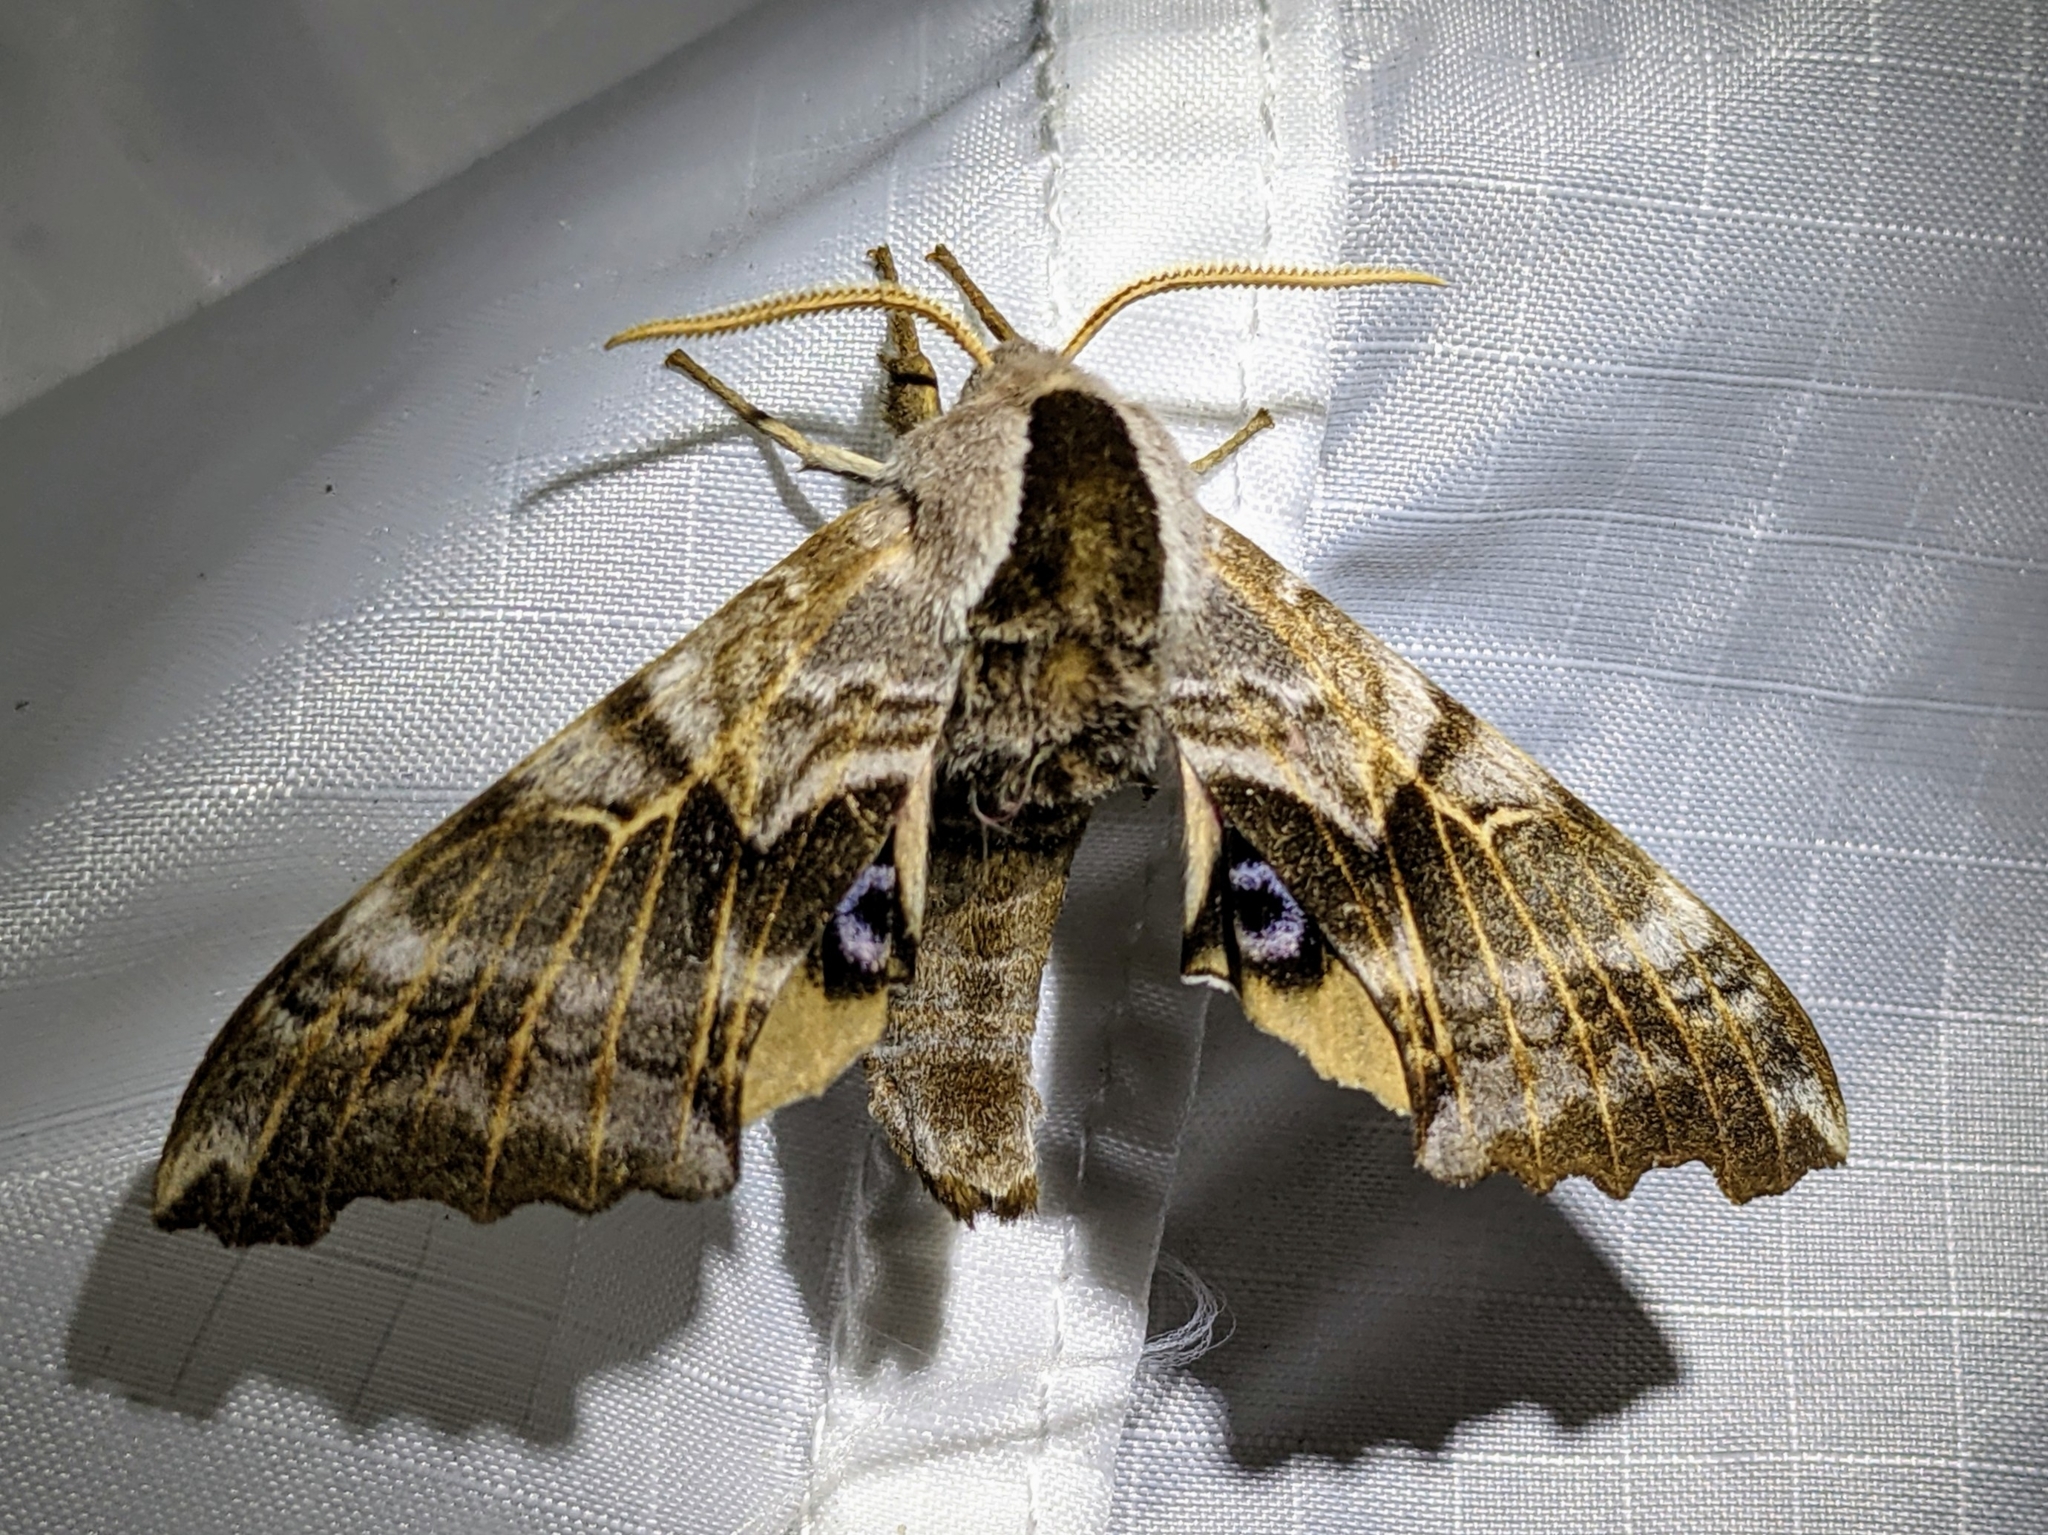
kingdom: Animalia
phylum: Arthropoda
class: Insecta
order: Lepidoptera
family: Sphingidae
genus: Smerinthus
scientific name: Smerinthus cerisyi
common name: Cerisy's sphinx moth
